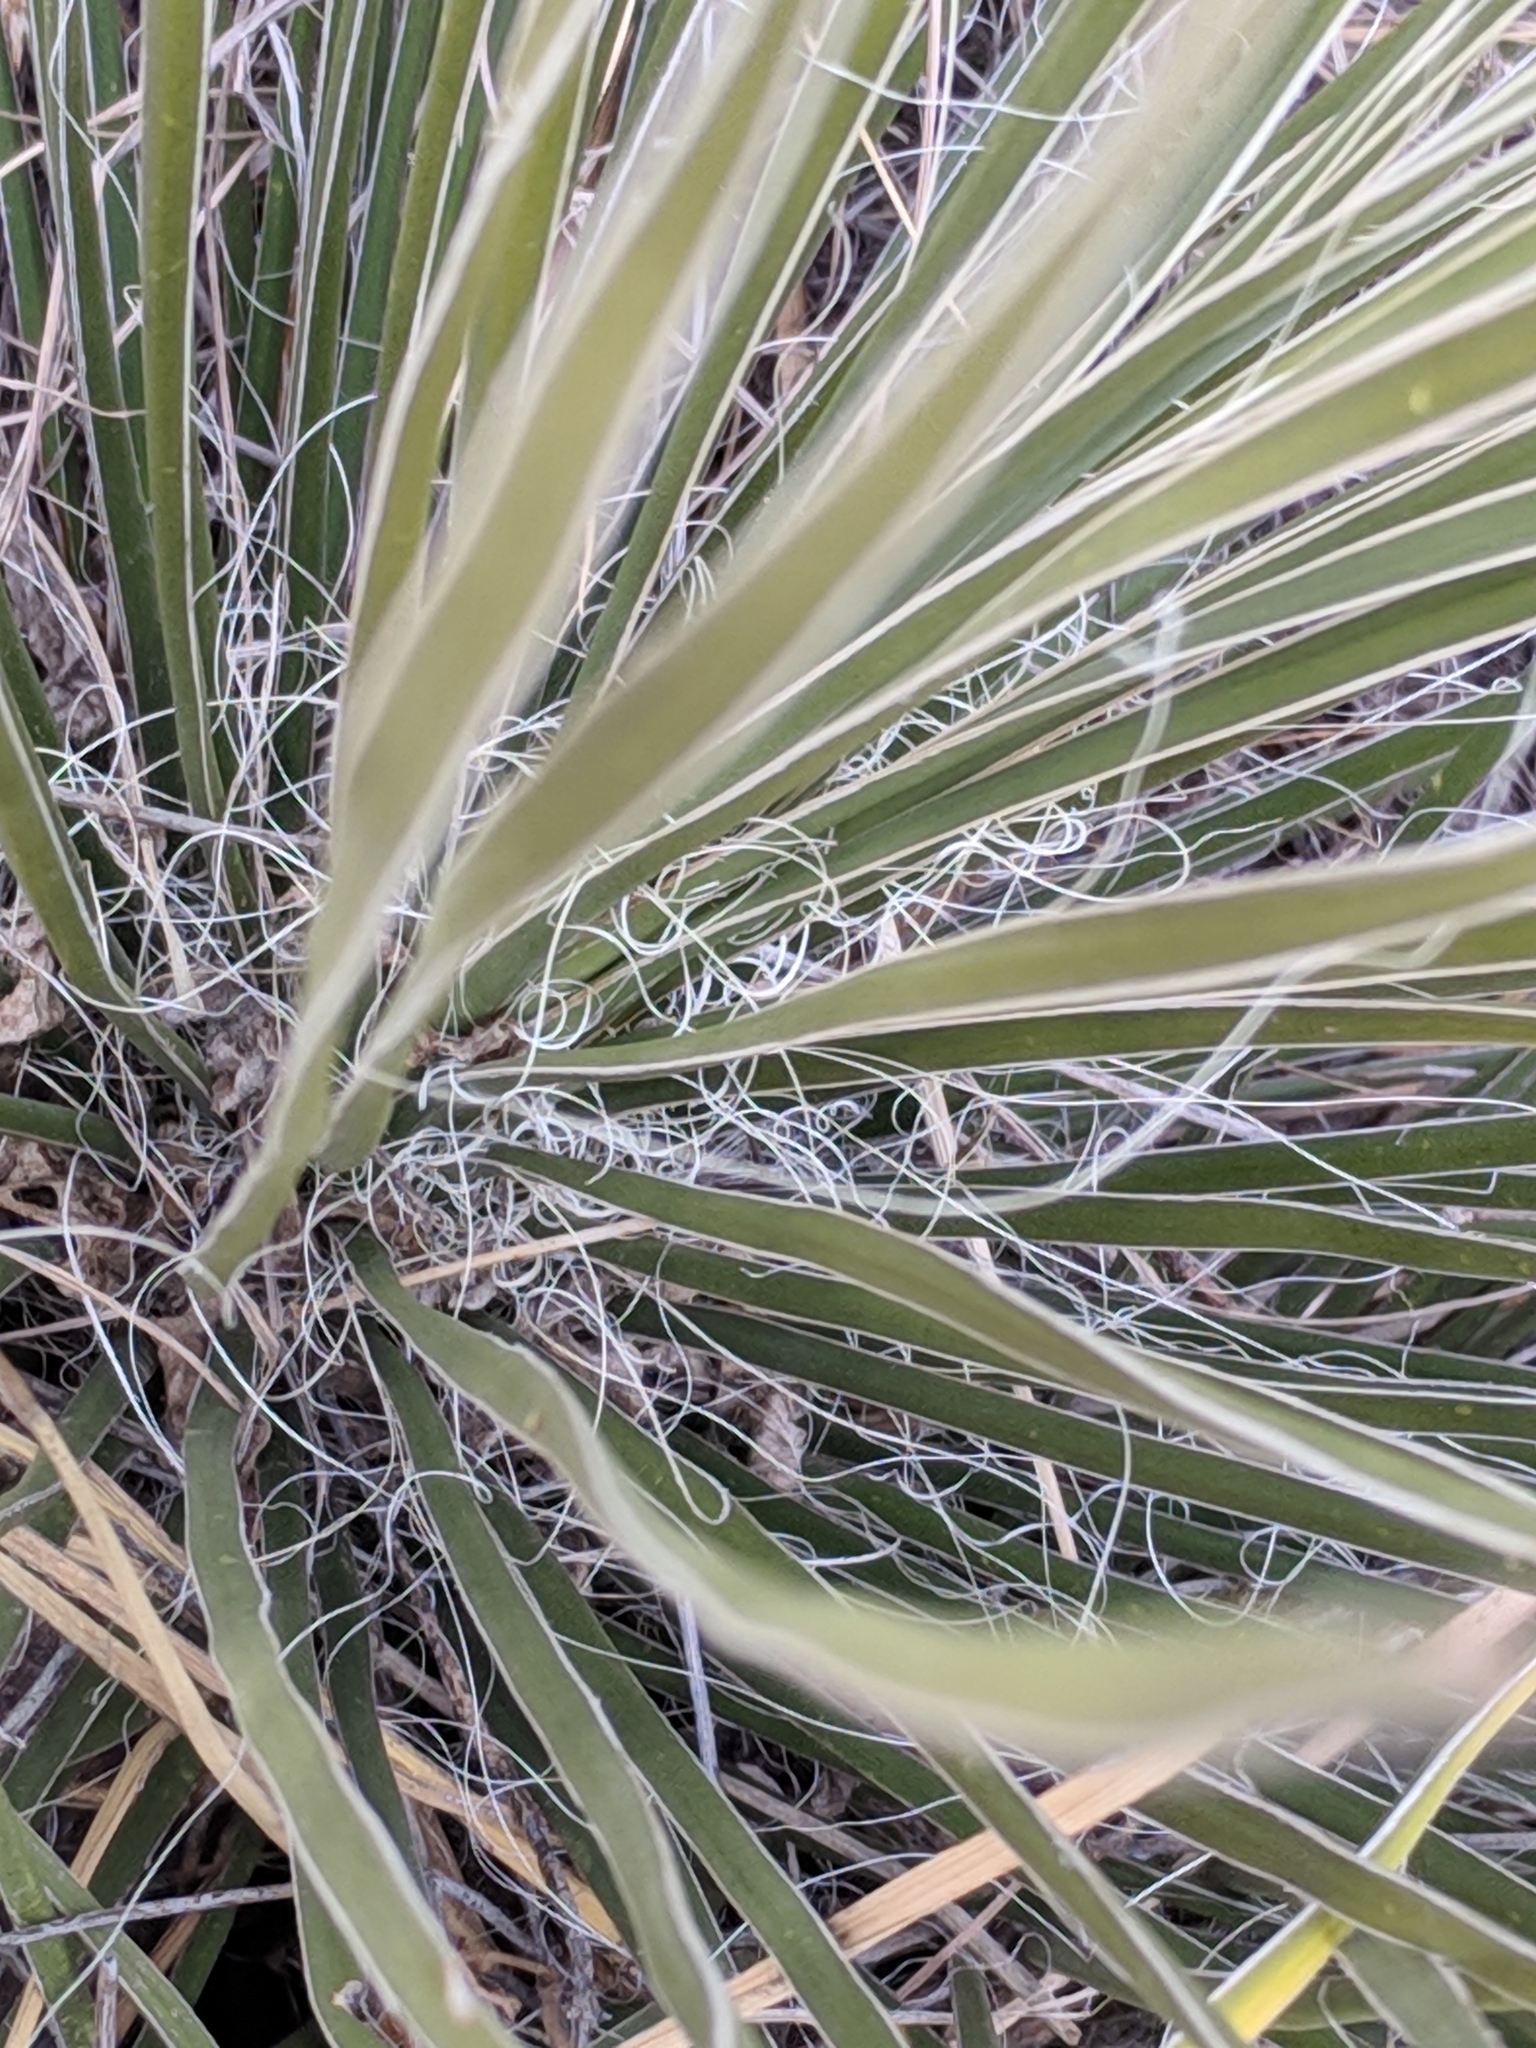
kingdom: Plantae
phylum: Tracheophyta
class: Liliopsida
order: Asparagales
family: Asparagaceae
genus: Yucca
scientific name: Yucca elata
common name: Palmella
